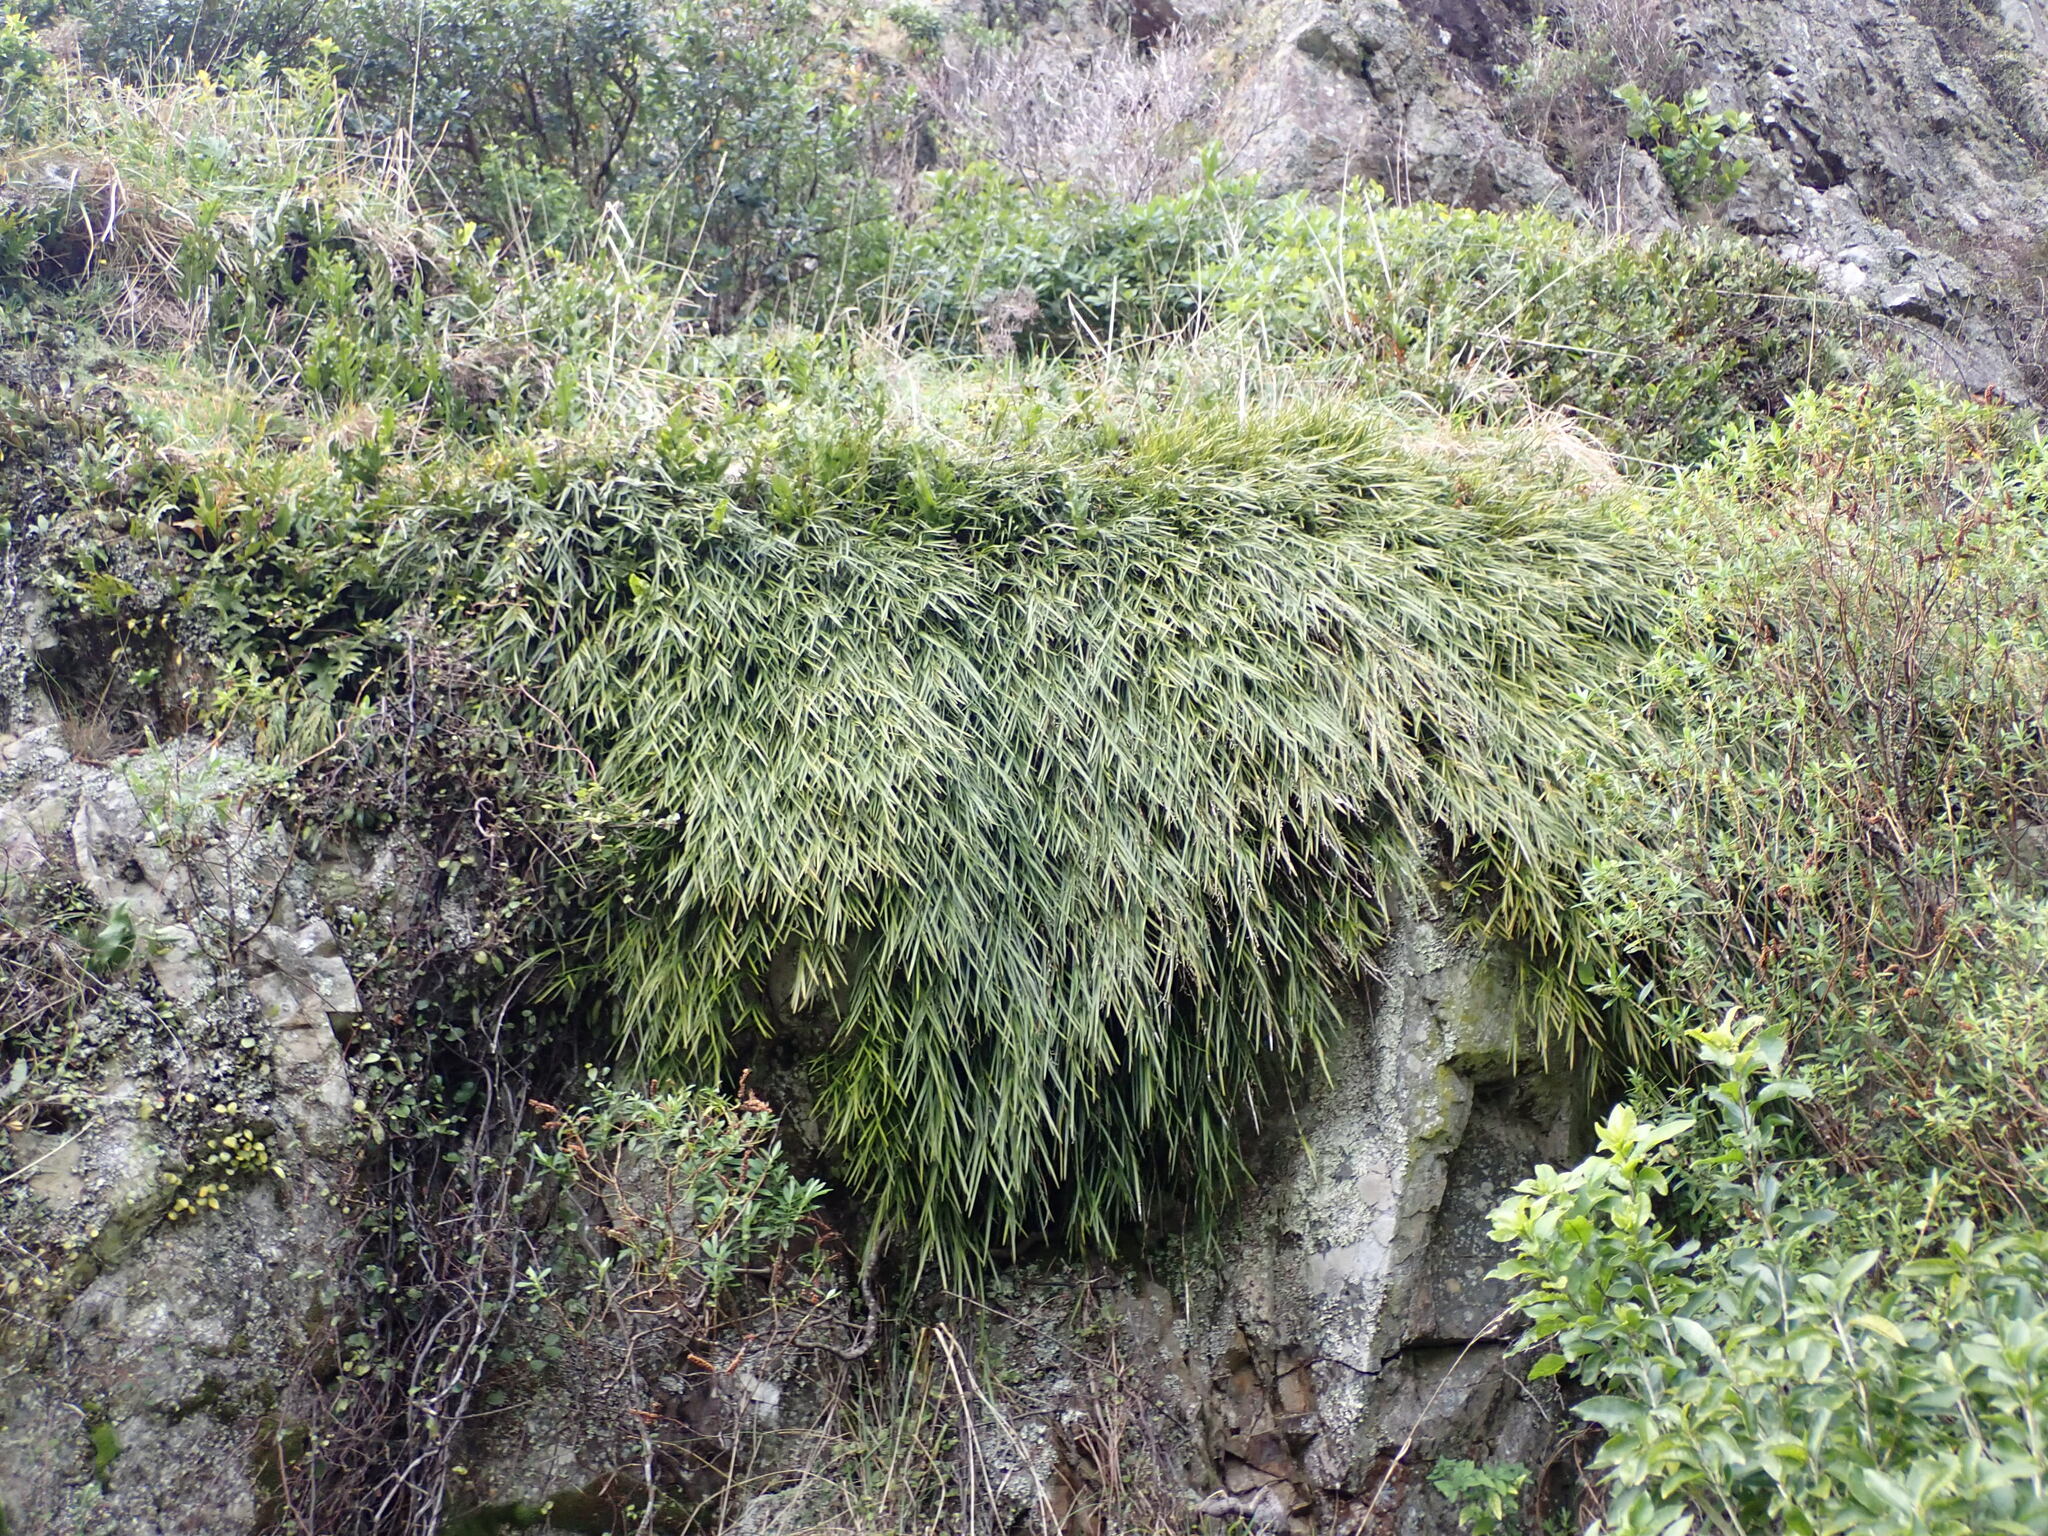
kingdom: Plantae
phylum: Tracheophyta
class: Liliopsida
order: Asparagales
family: Orchidaceae
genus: Earina
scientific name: Earina mucronata
